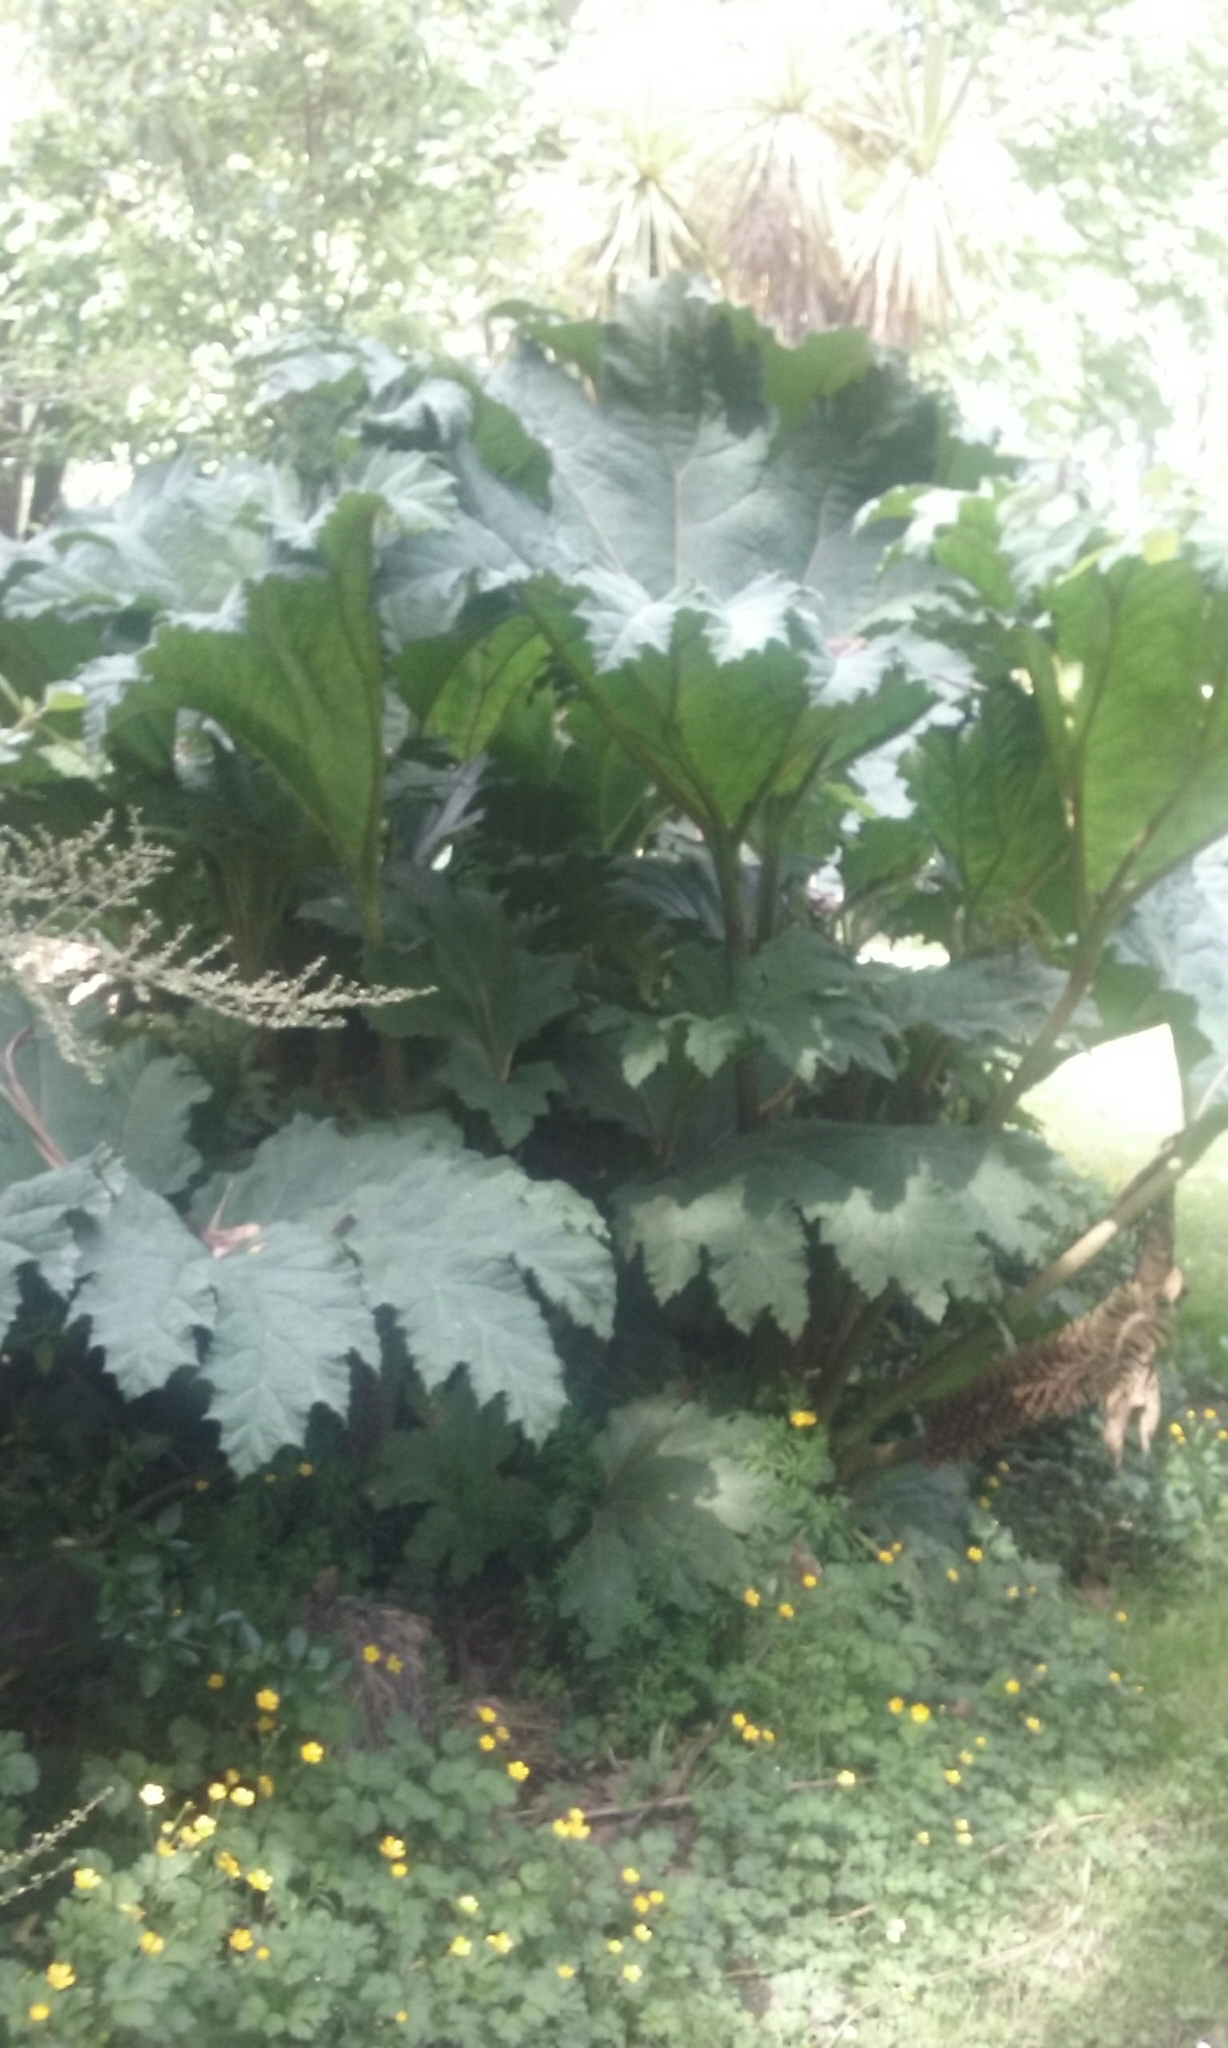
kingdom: Plantae
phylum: Tracheophyta
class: Magnoliopsida
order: Gunnerales
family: Gunneraceae
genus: Gunnera
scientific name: Gunnera tinctoria
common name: Giant-rhubarb
